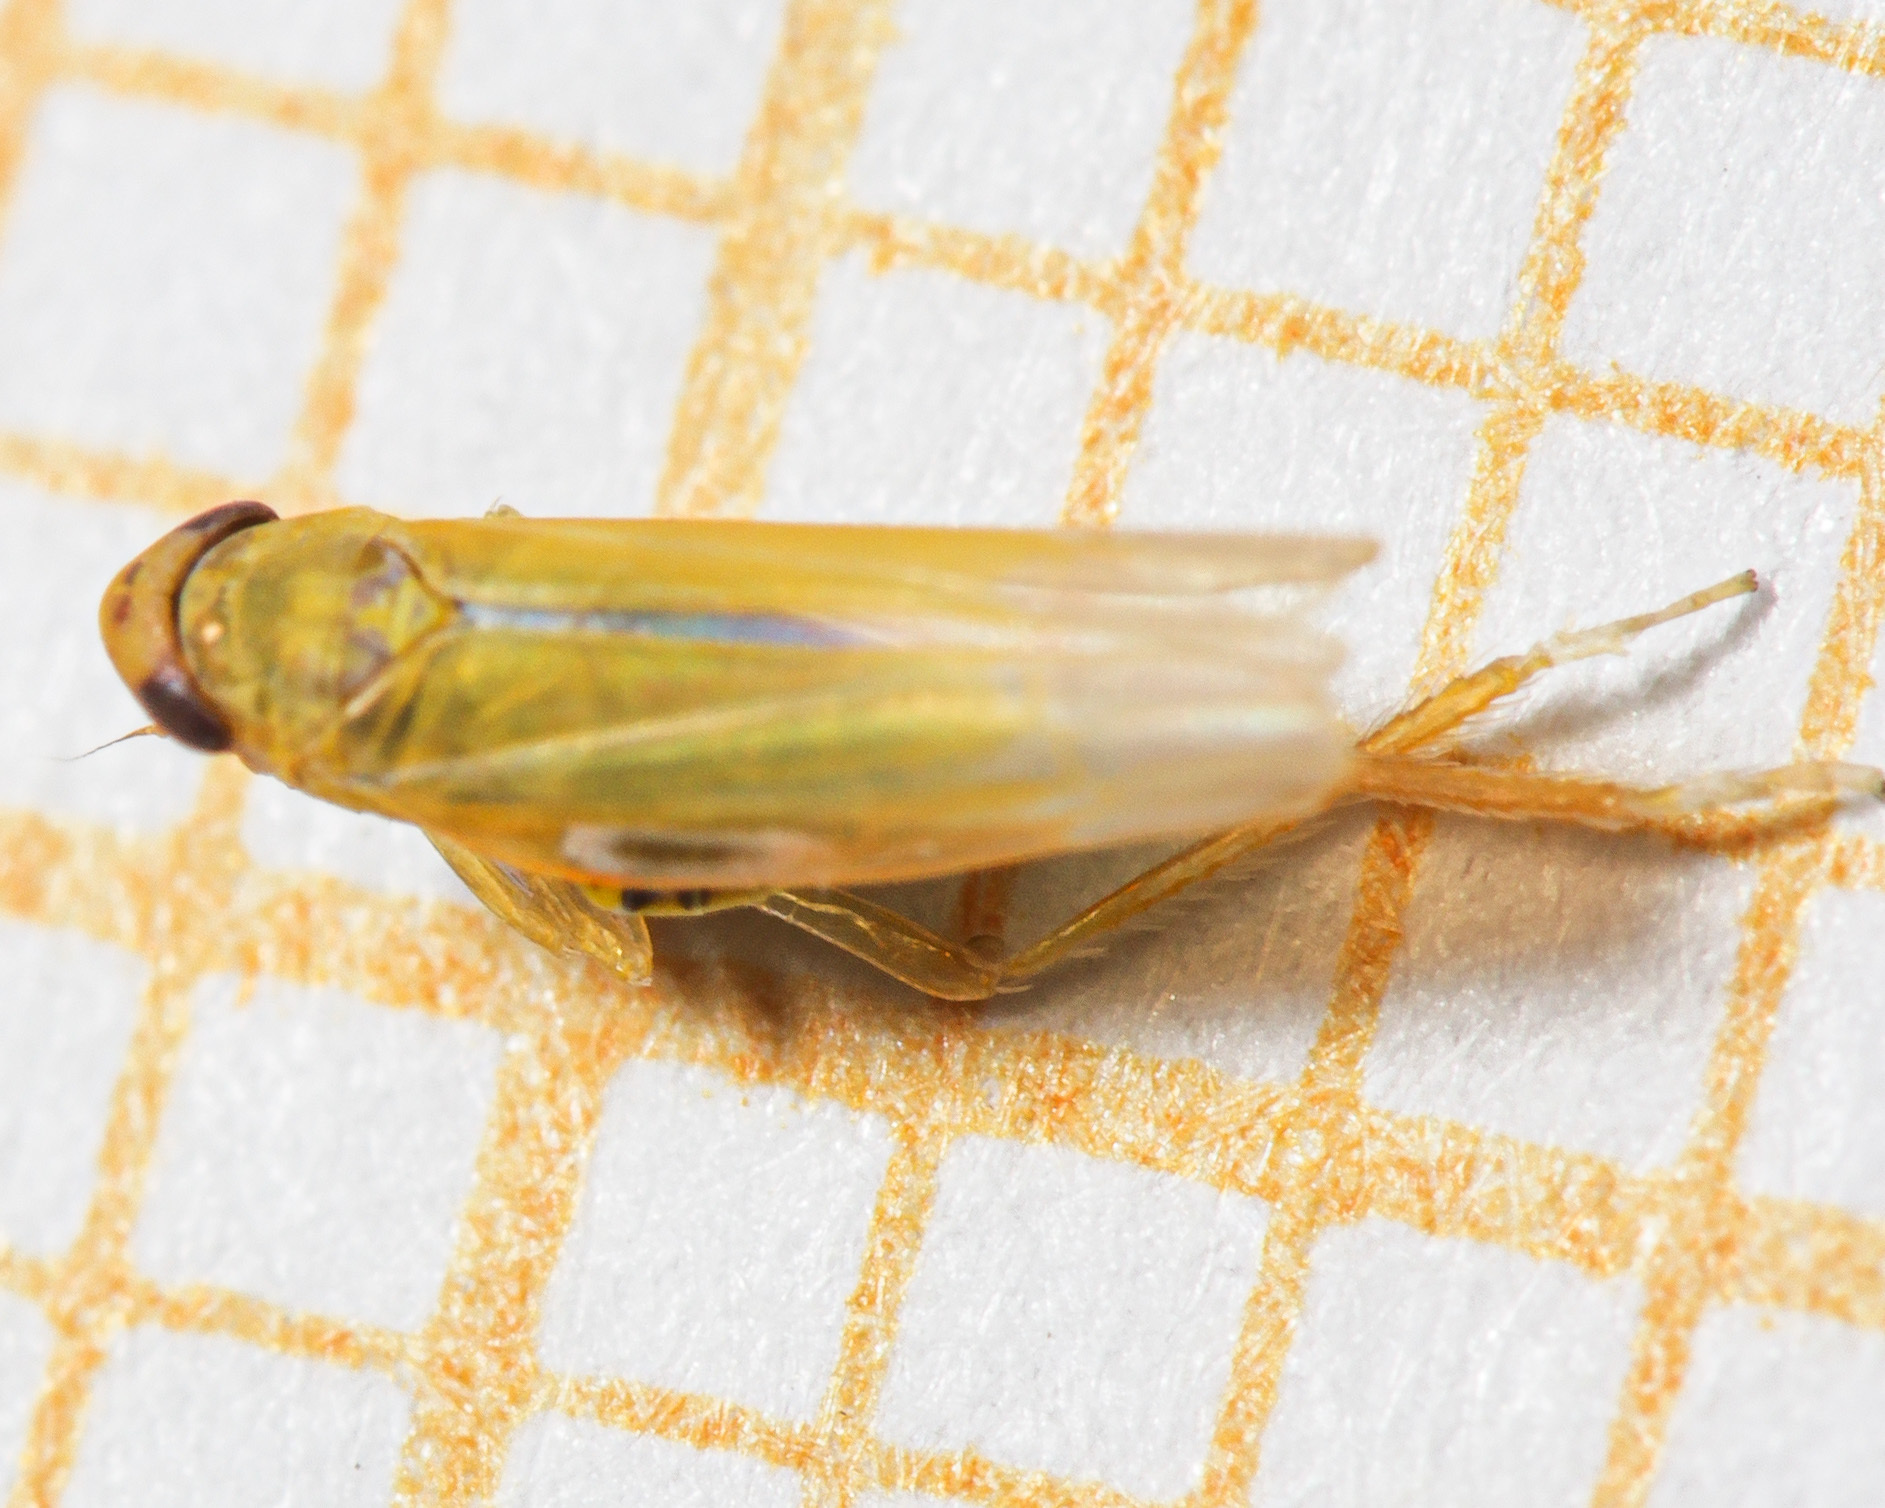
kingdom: Animalia
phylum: Arthropoda
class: Insecta
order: Hemiptera
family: Cicadellidae
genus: Emelyanoviana
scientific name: Emelyanoviana mollicula
